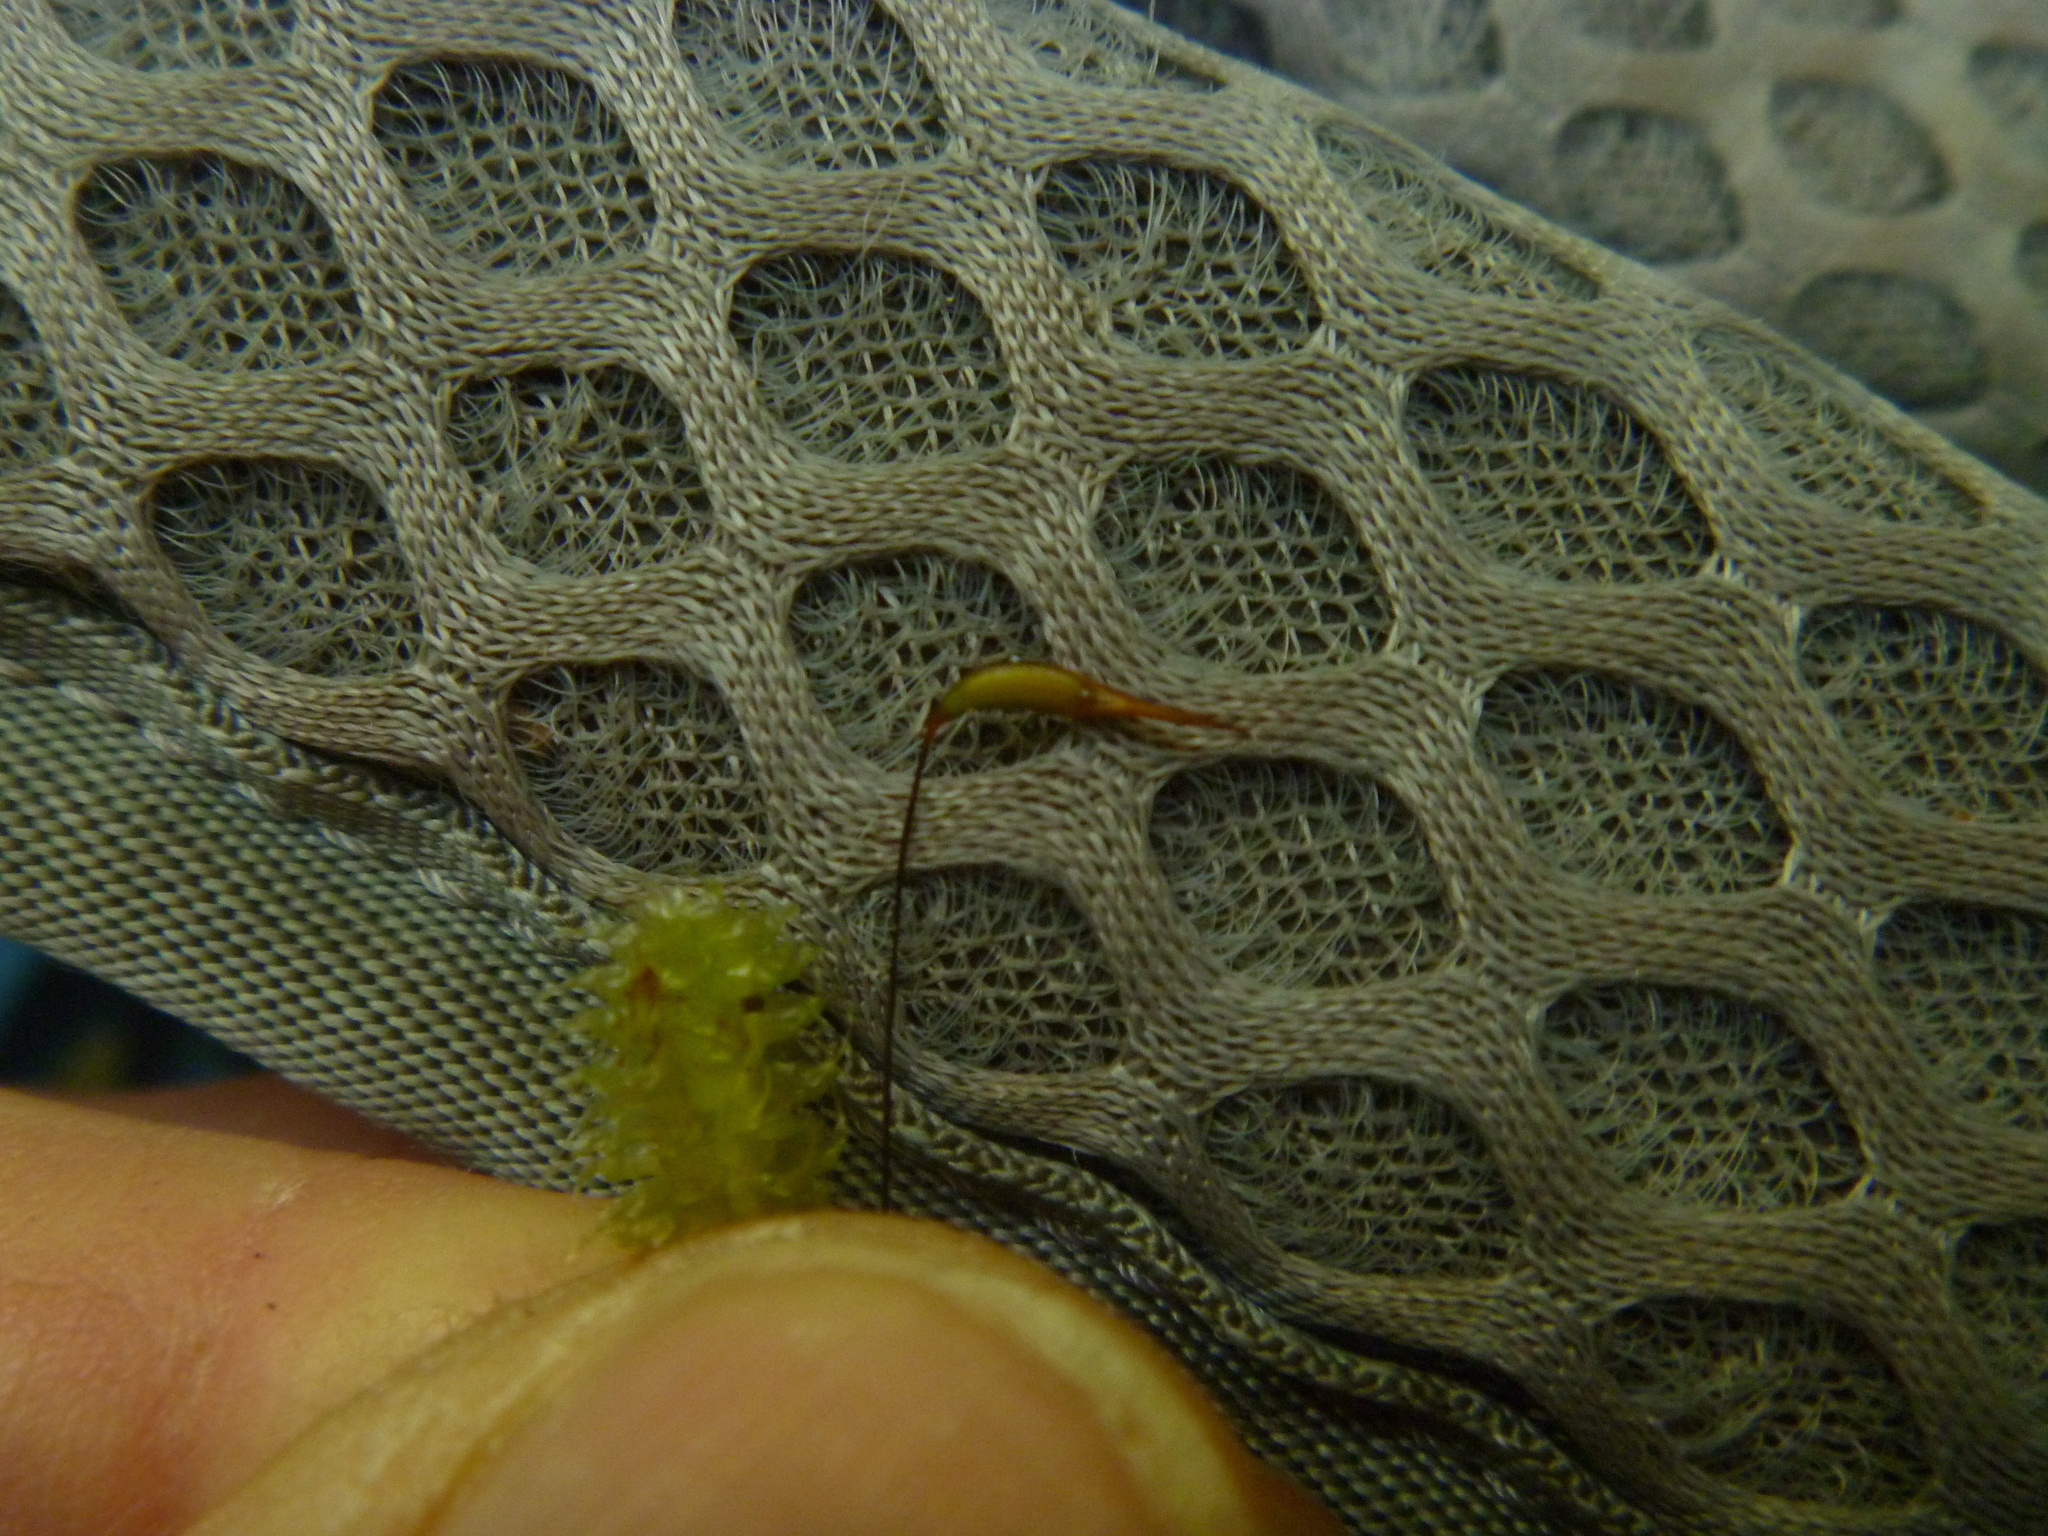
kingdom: Plantae
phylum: Bryophyta
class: Bryopsida
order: Ptychomniales
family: Ptychomniaceae
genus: Ptychomnion
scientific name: Ptychomnion aciculare
